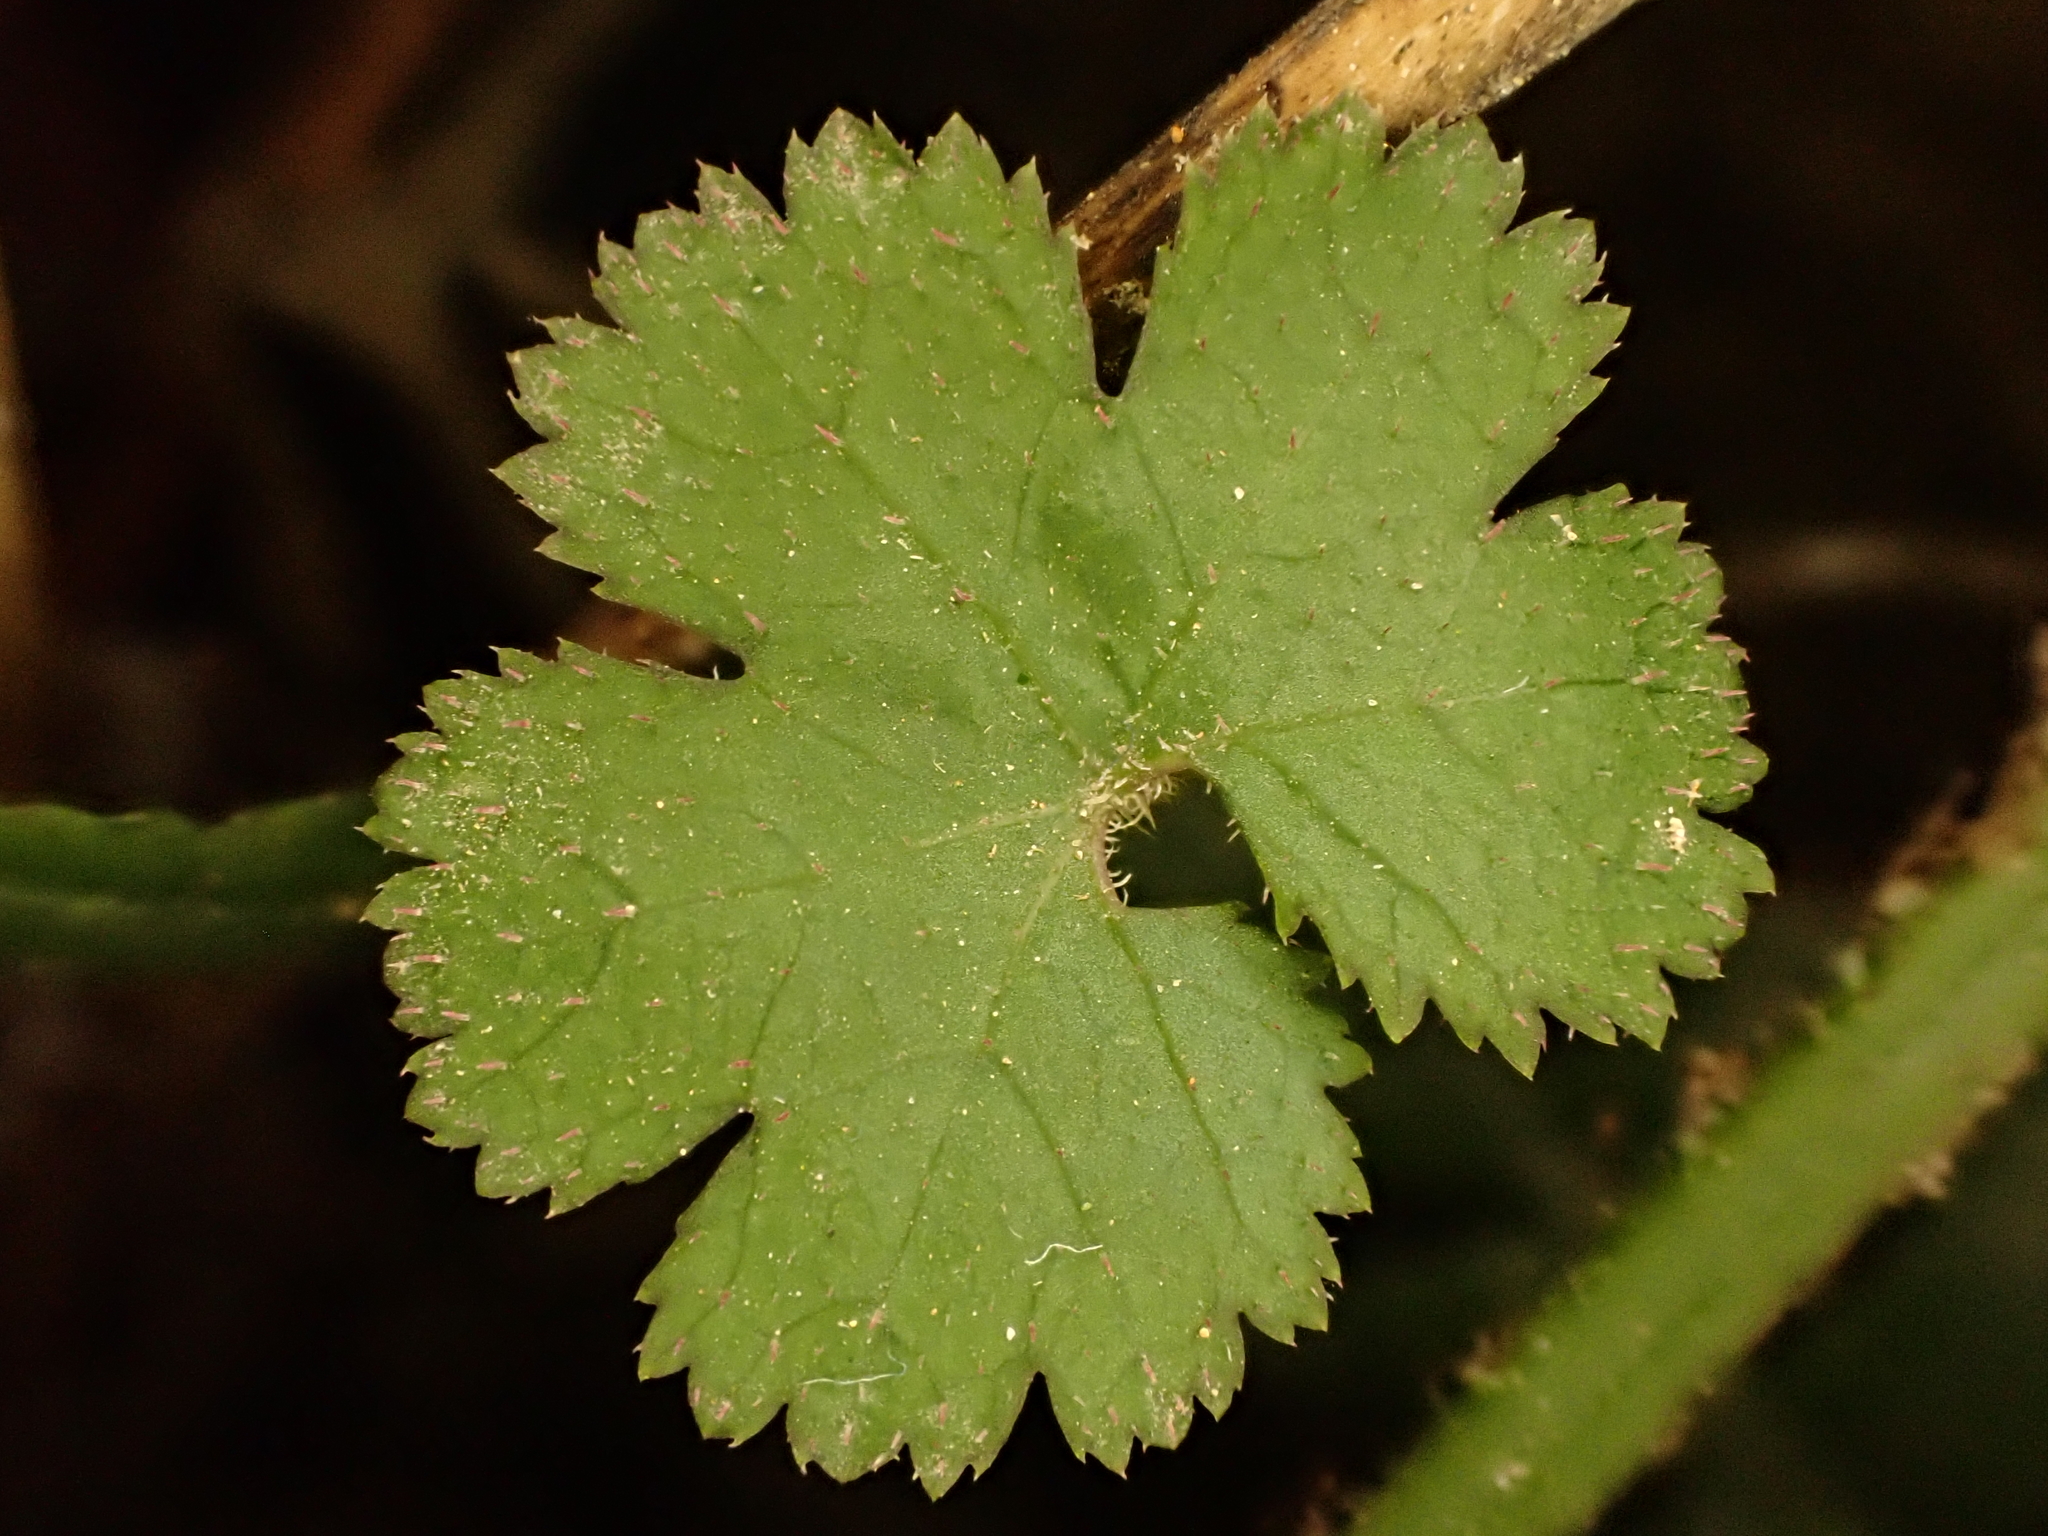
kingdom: Plantae
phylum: Tracheophyta
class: Magnoliopsida
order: Apiales
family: Araliaceae
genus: Hydrocotyle
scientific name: Hydrocotyle elongata
